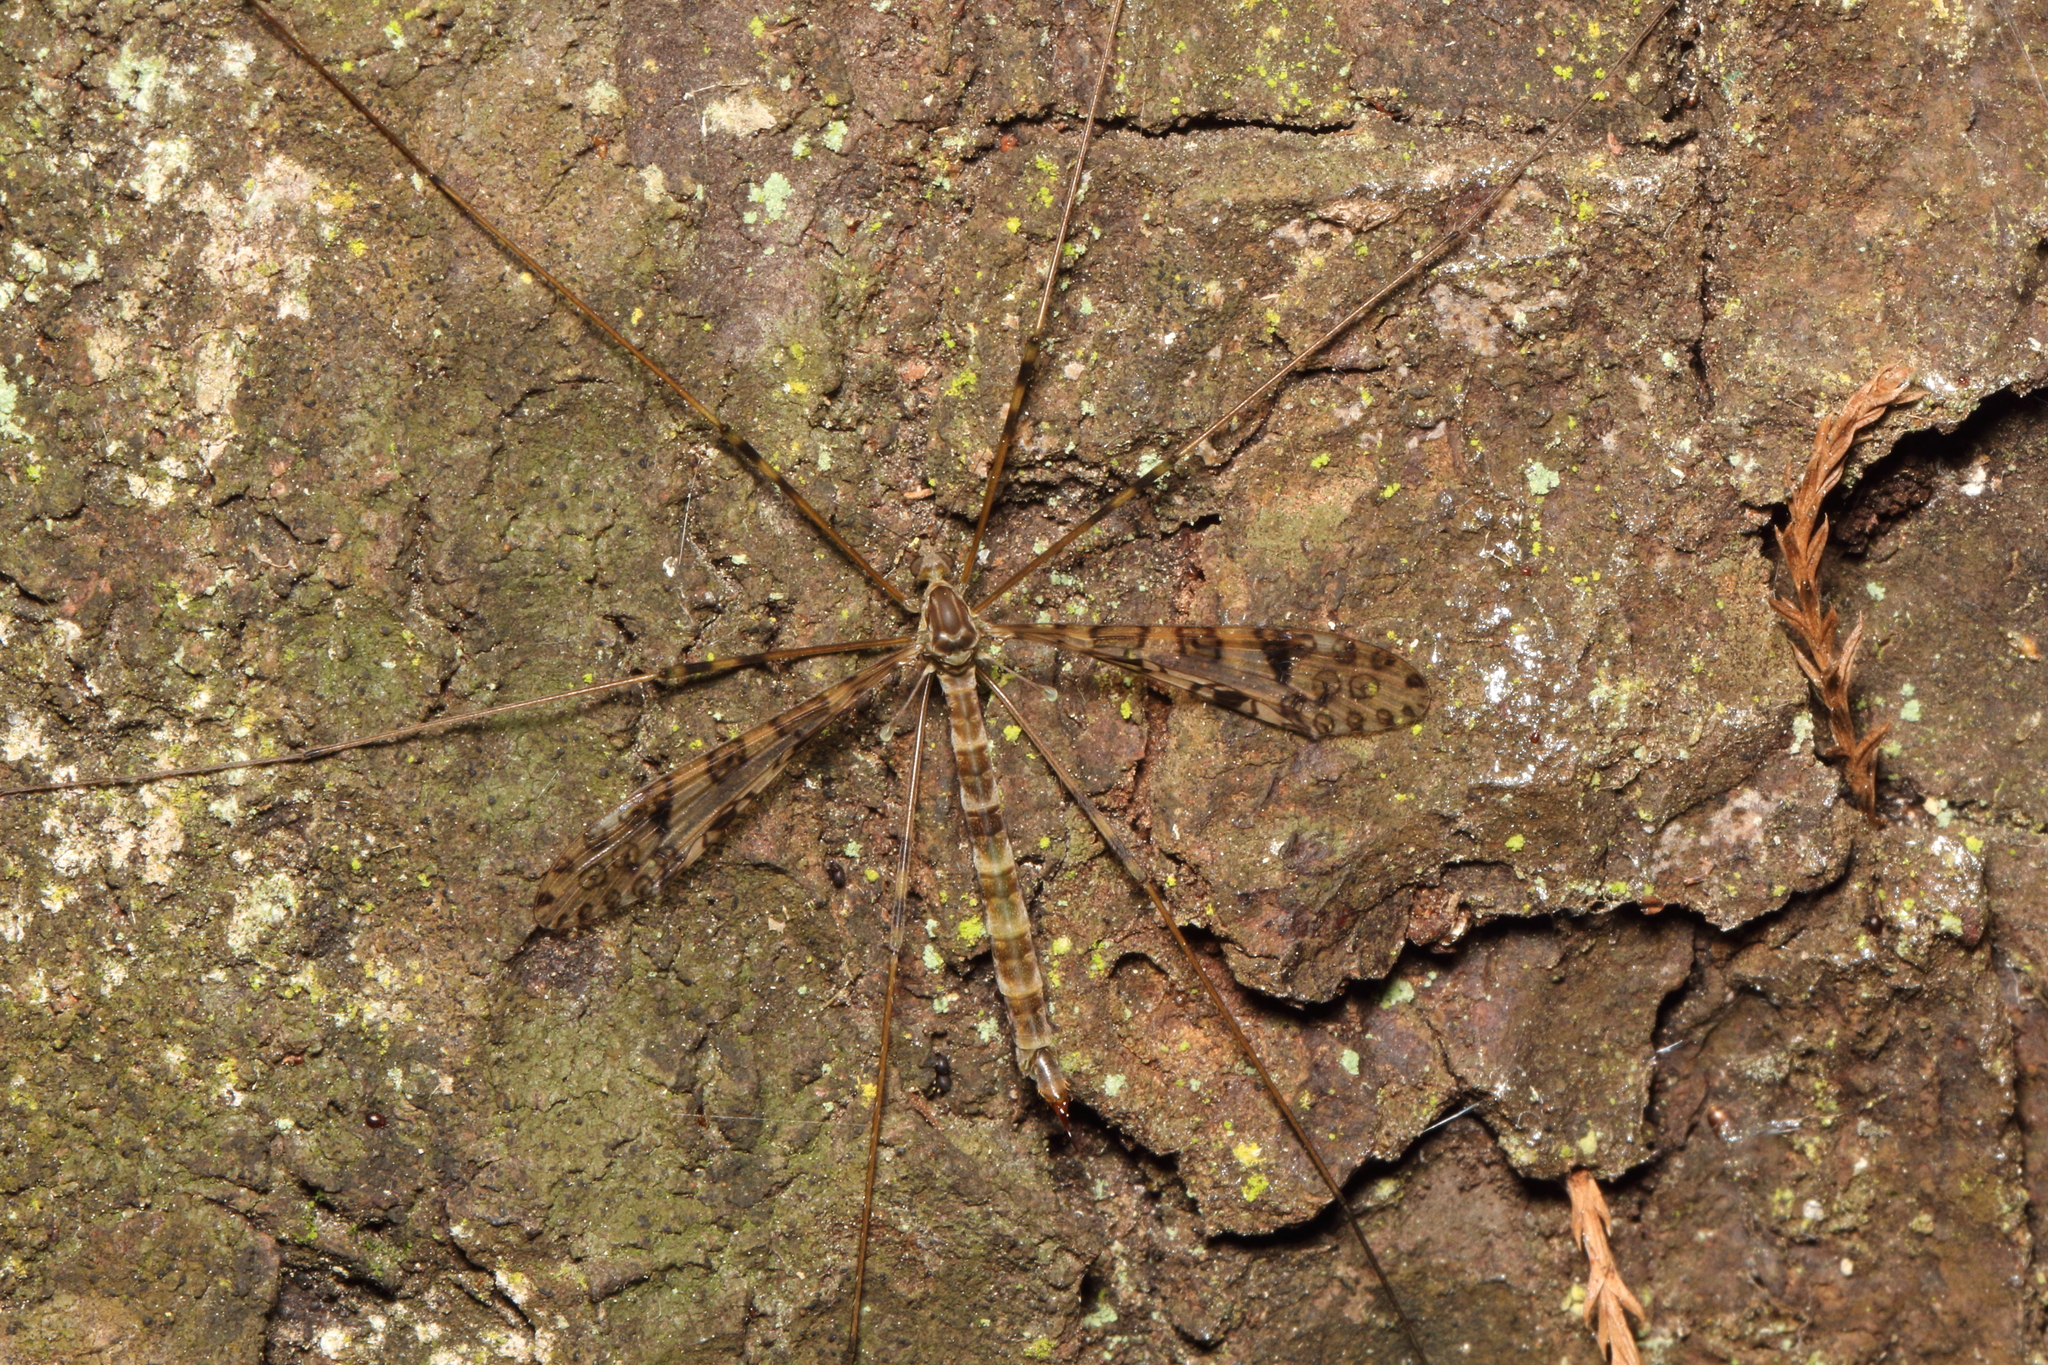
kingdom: Animalia
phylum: Arthropoda
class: Insecta
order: Diptera
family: Limoniidae
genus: Austrolimnophila
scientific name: Austrolimnophila argus
